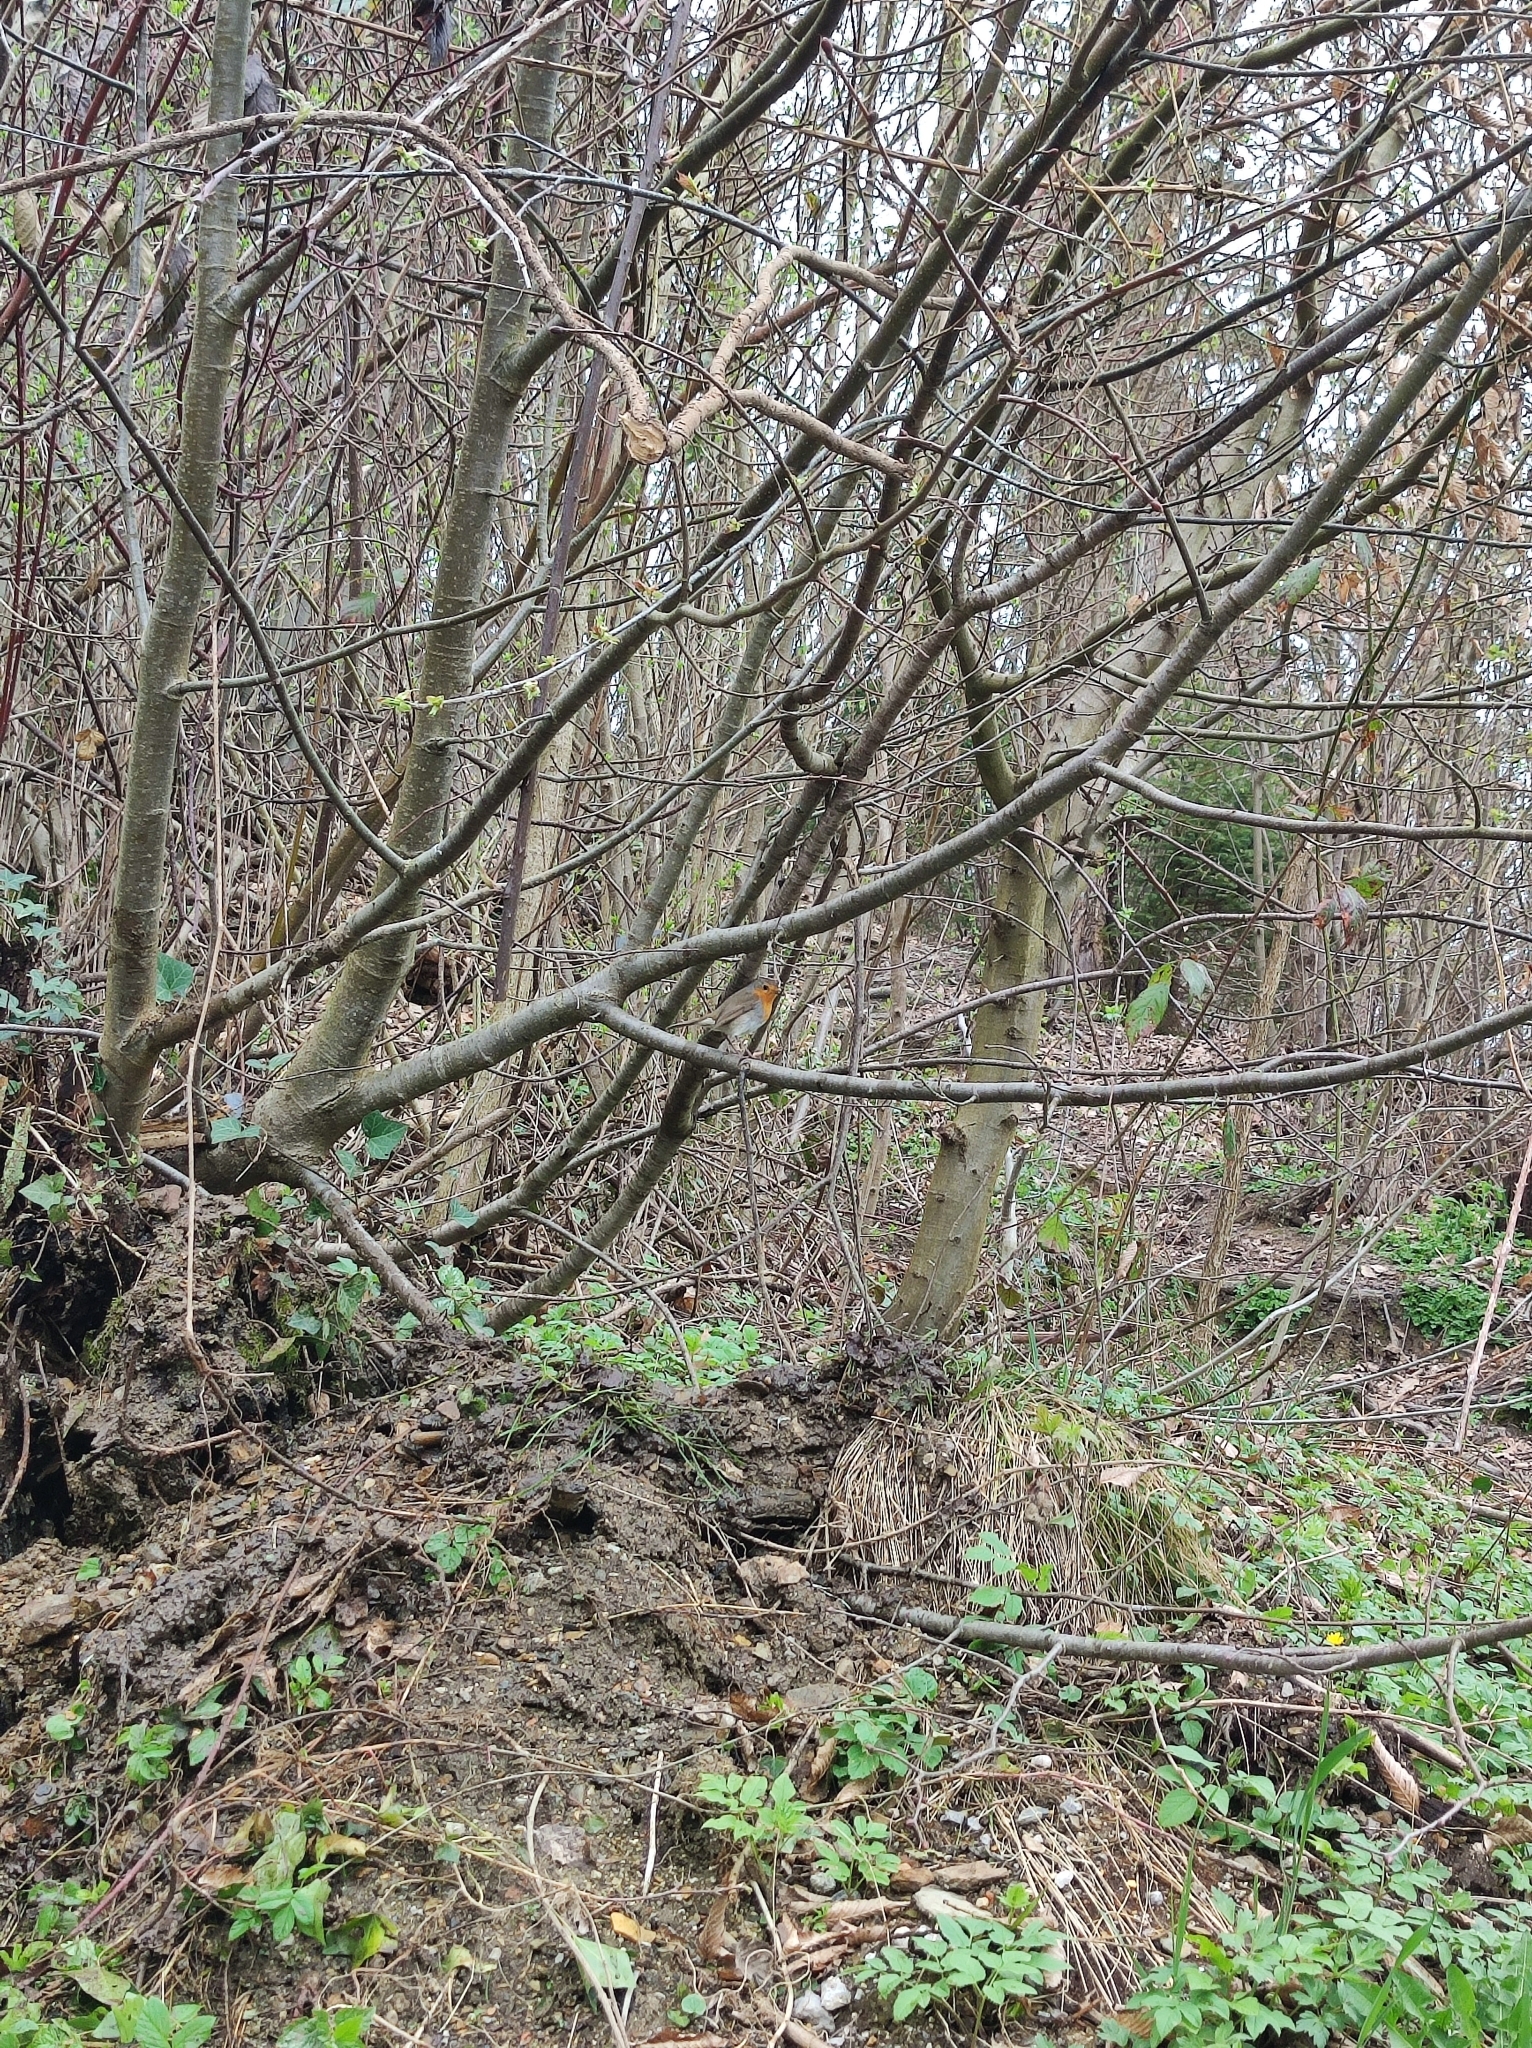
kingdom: Animalia
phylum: Chordata
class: Aves
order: Passeriformes
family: Muscicapidae
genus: Erithacus
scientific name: Erithacus rubecula
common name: European robin
